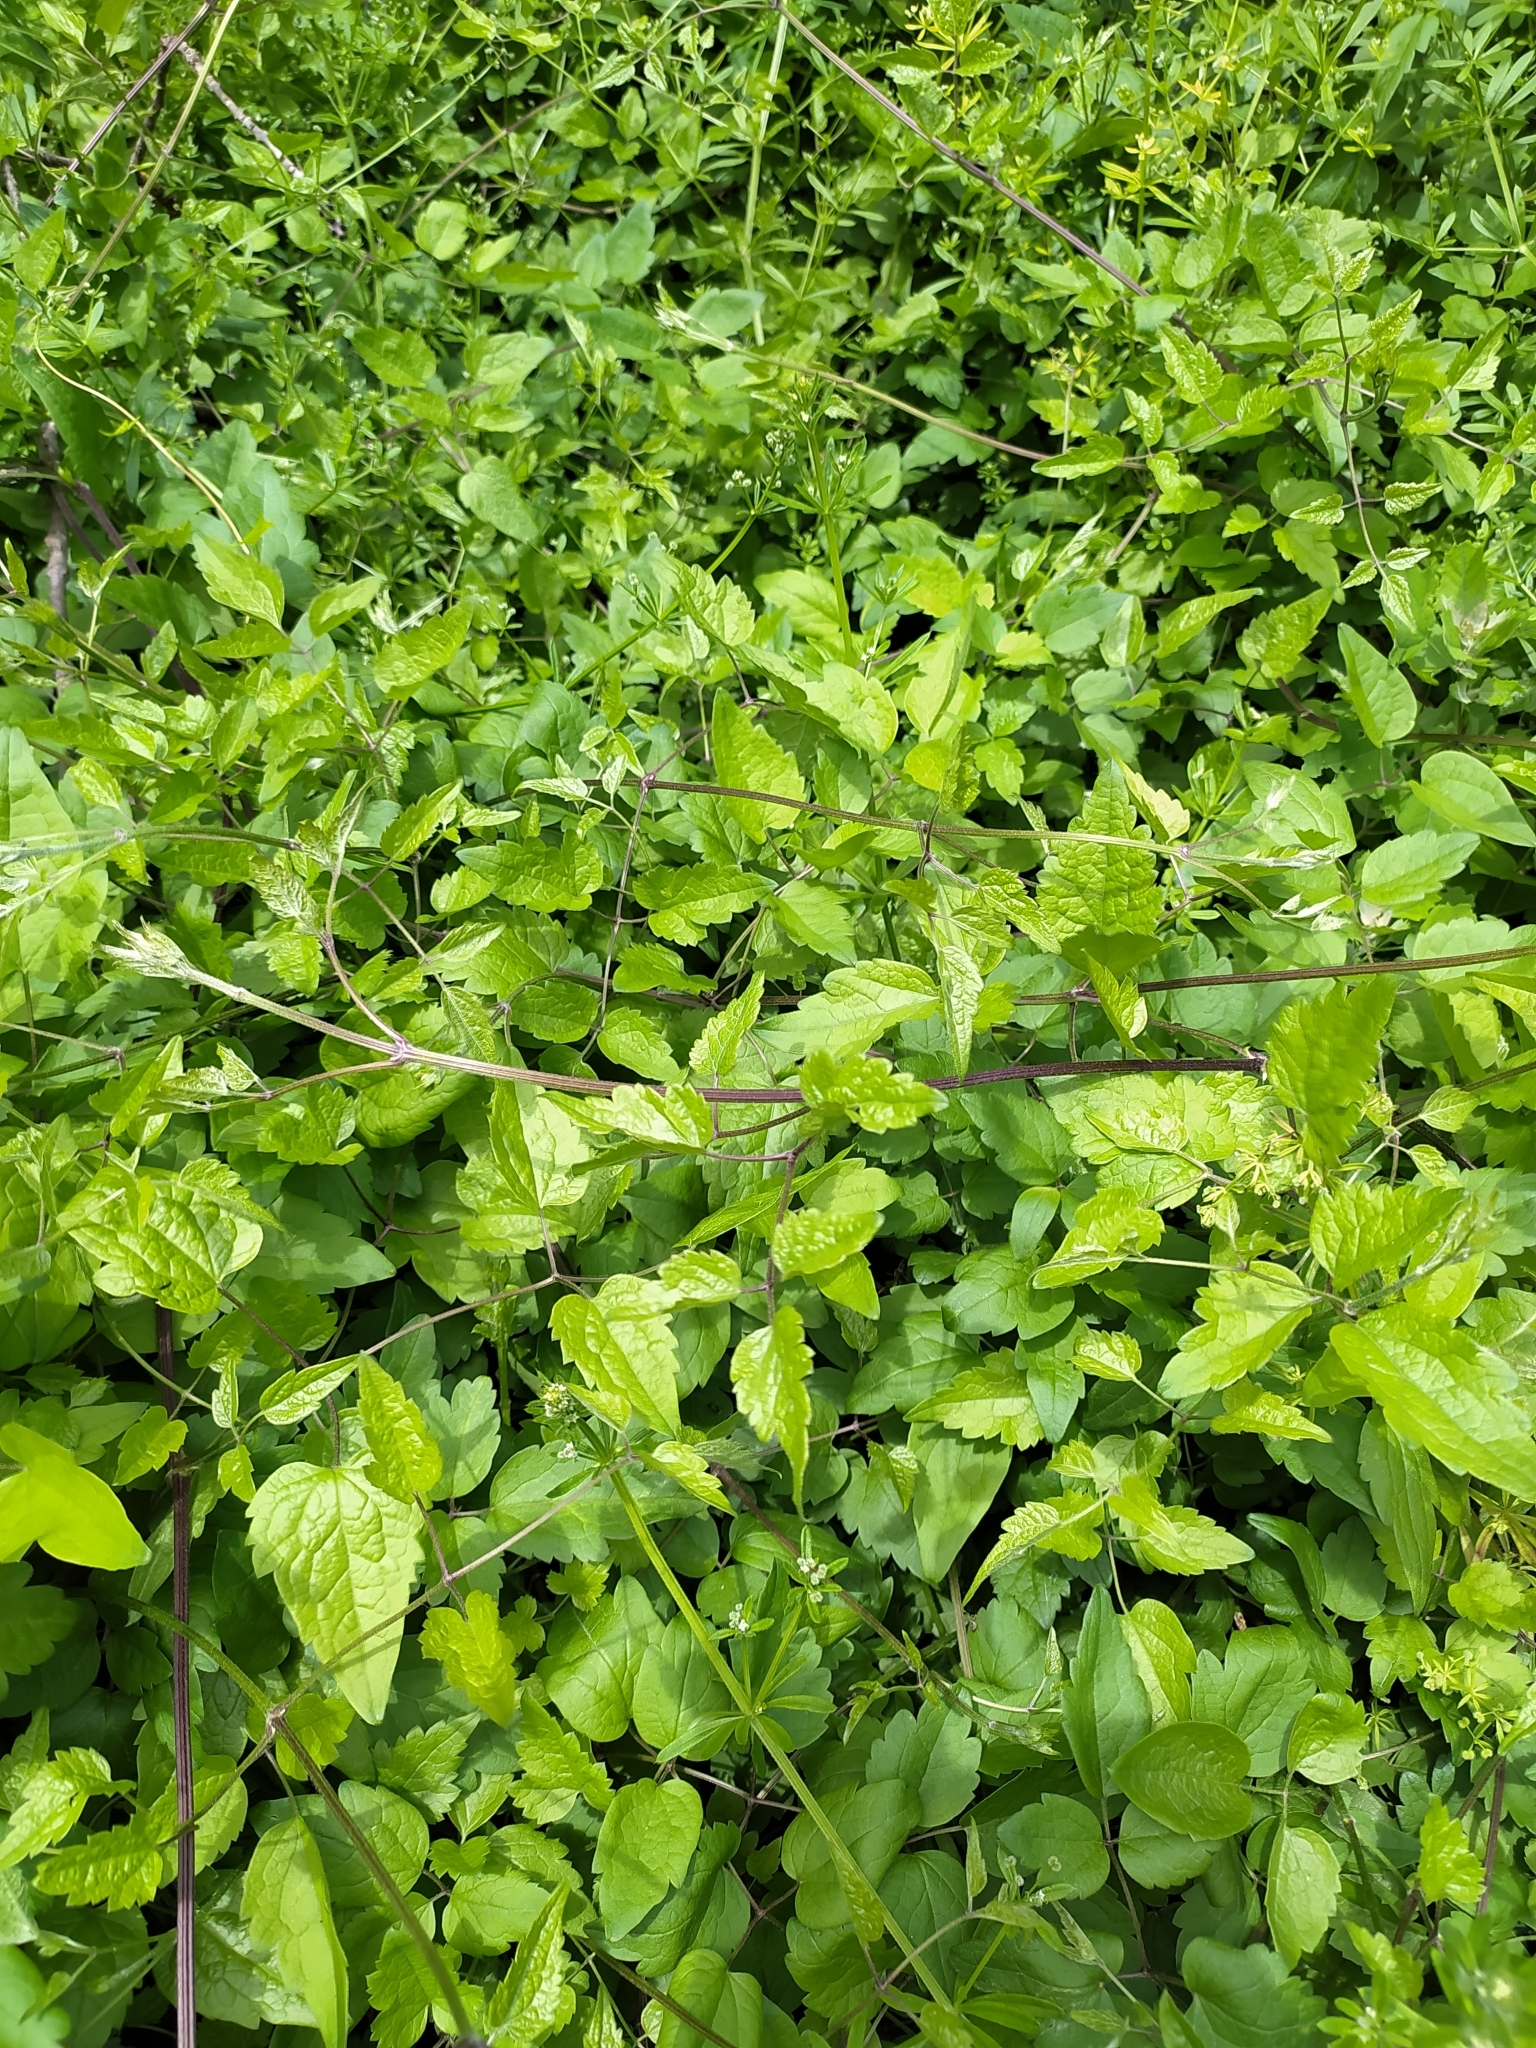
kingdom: Plantae
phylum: Tracheophyta
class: Magnoliopsida
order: Ranunculales
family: Ranunculaceae
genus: Clematis
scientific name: Clematis vitalba
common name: Evergreen clematis
